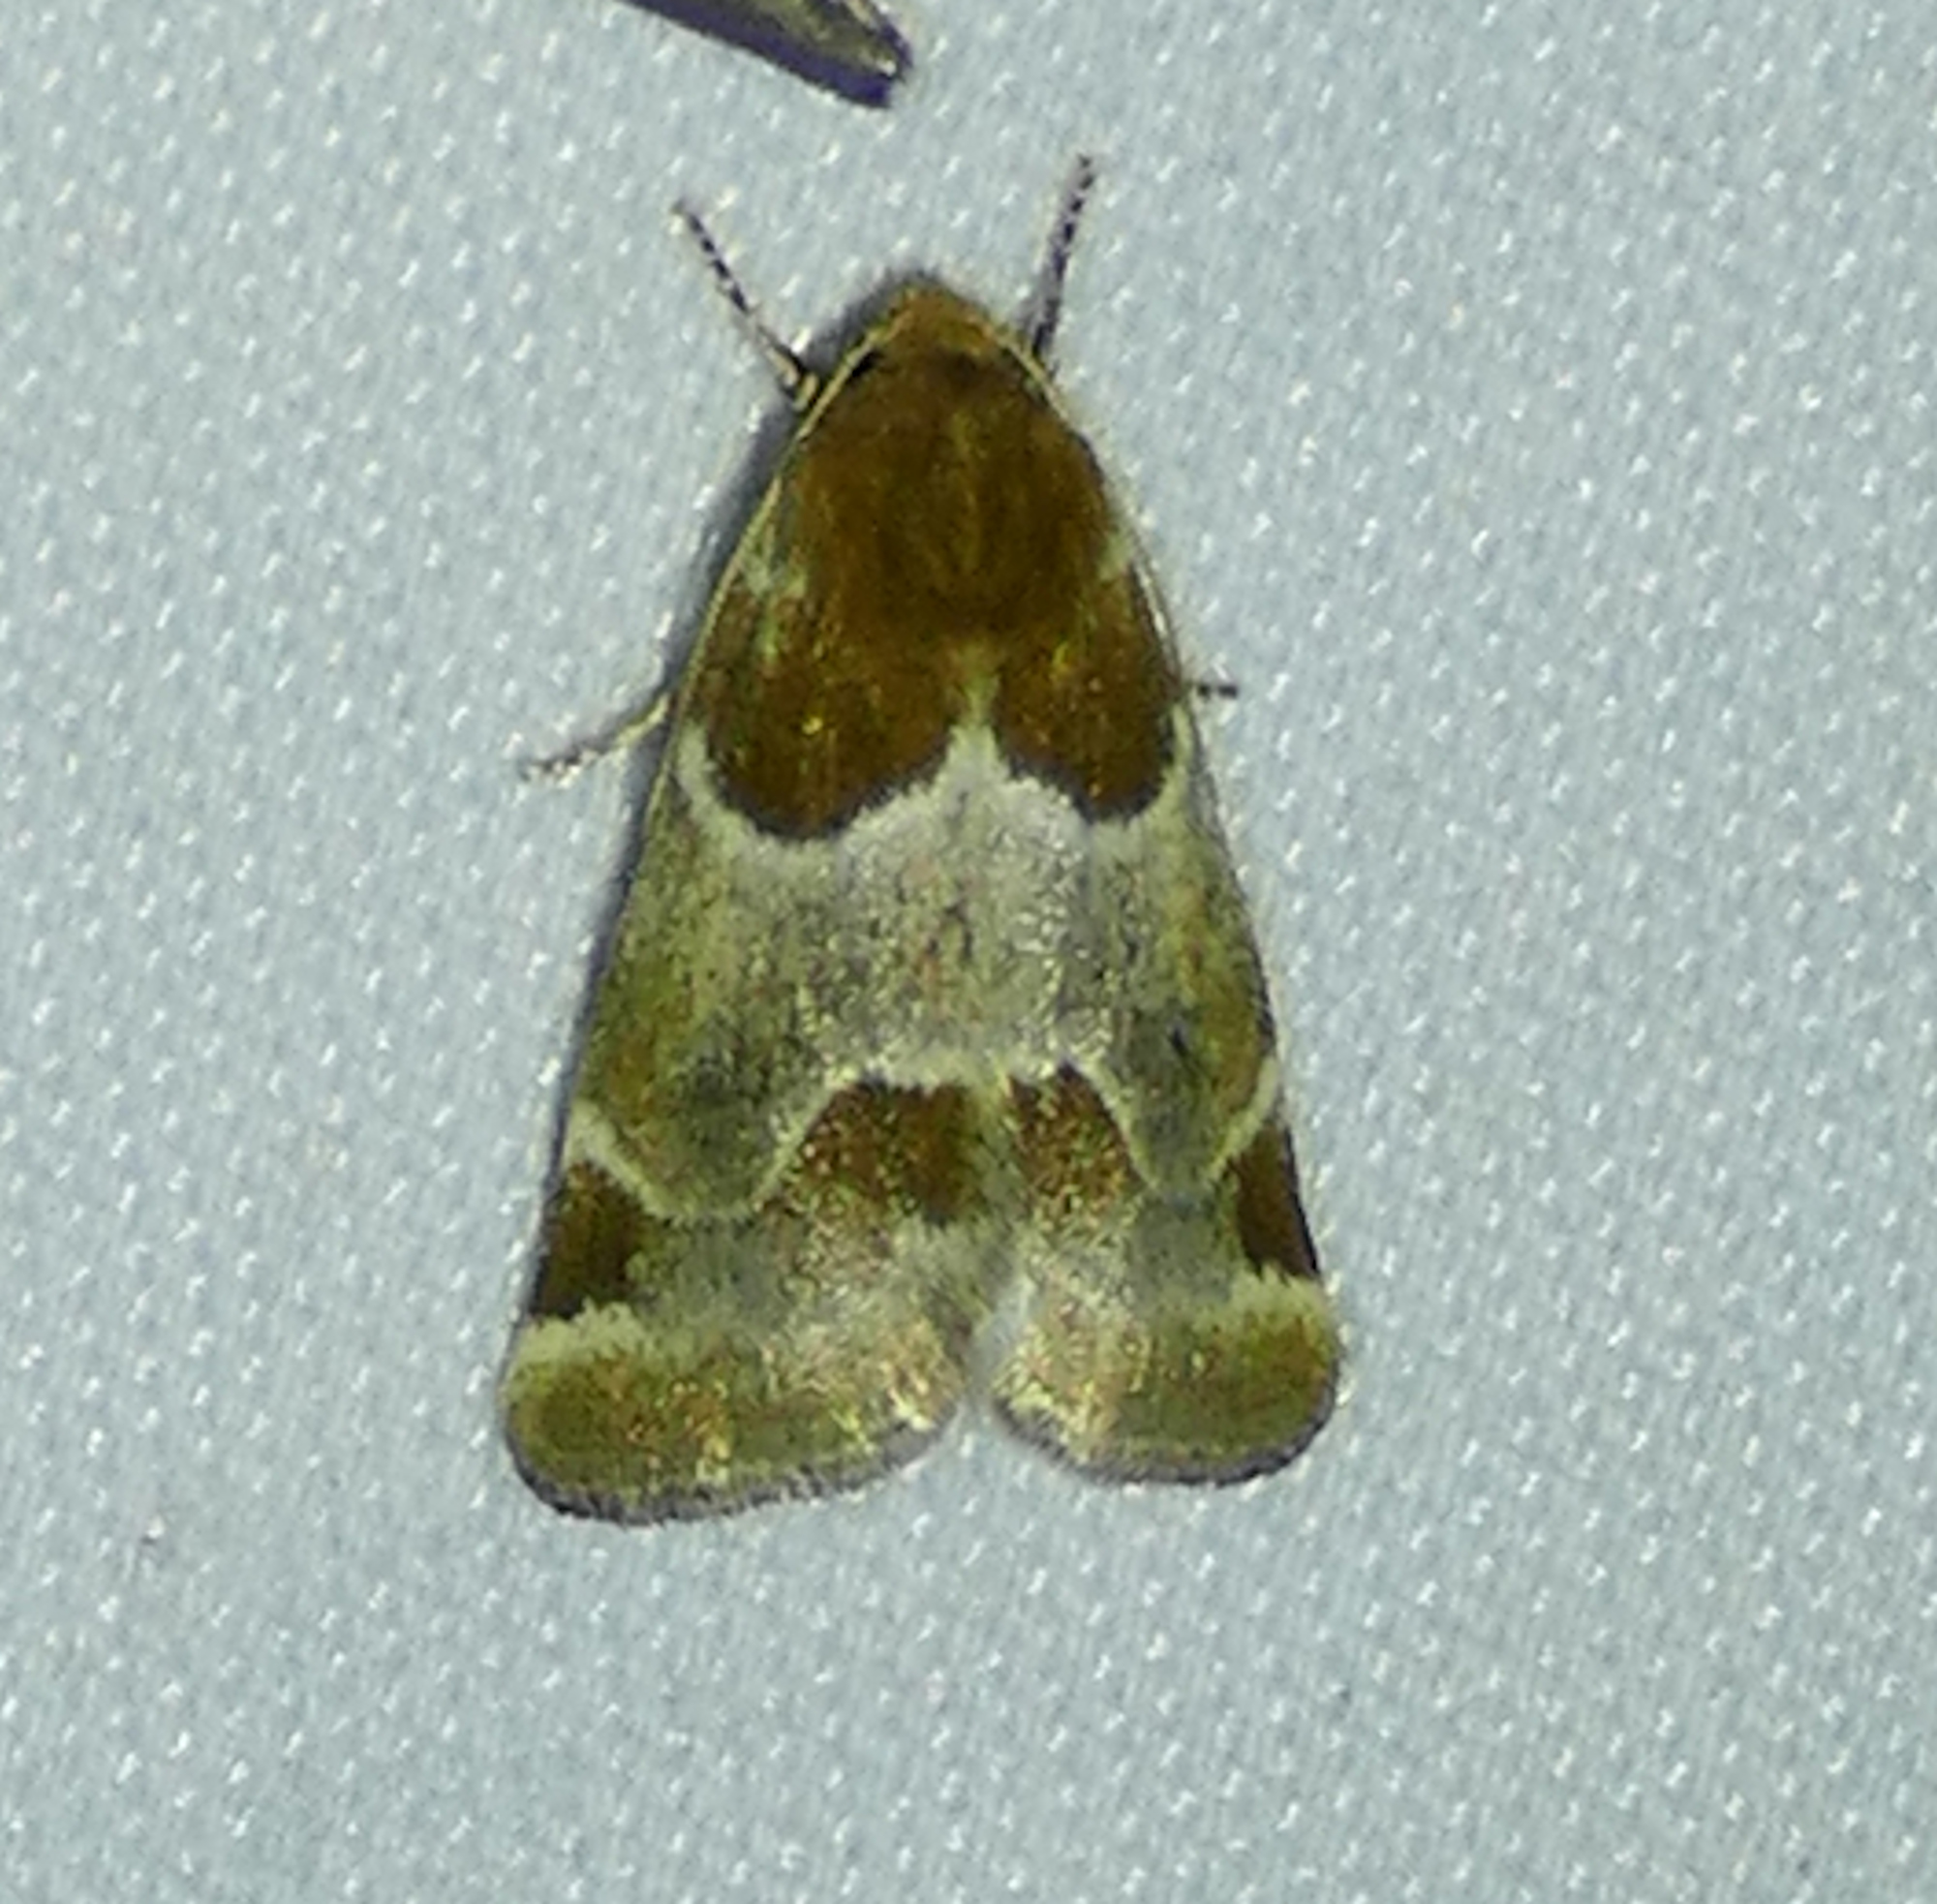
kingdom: Animalia
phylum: Arthropoda
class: Insecta
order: Lepidoptera
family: Noctuidae
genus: Schinia
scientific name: Schinia sexplagiata
